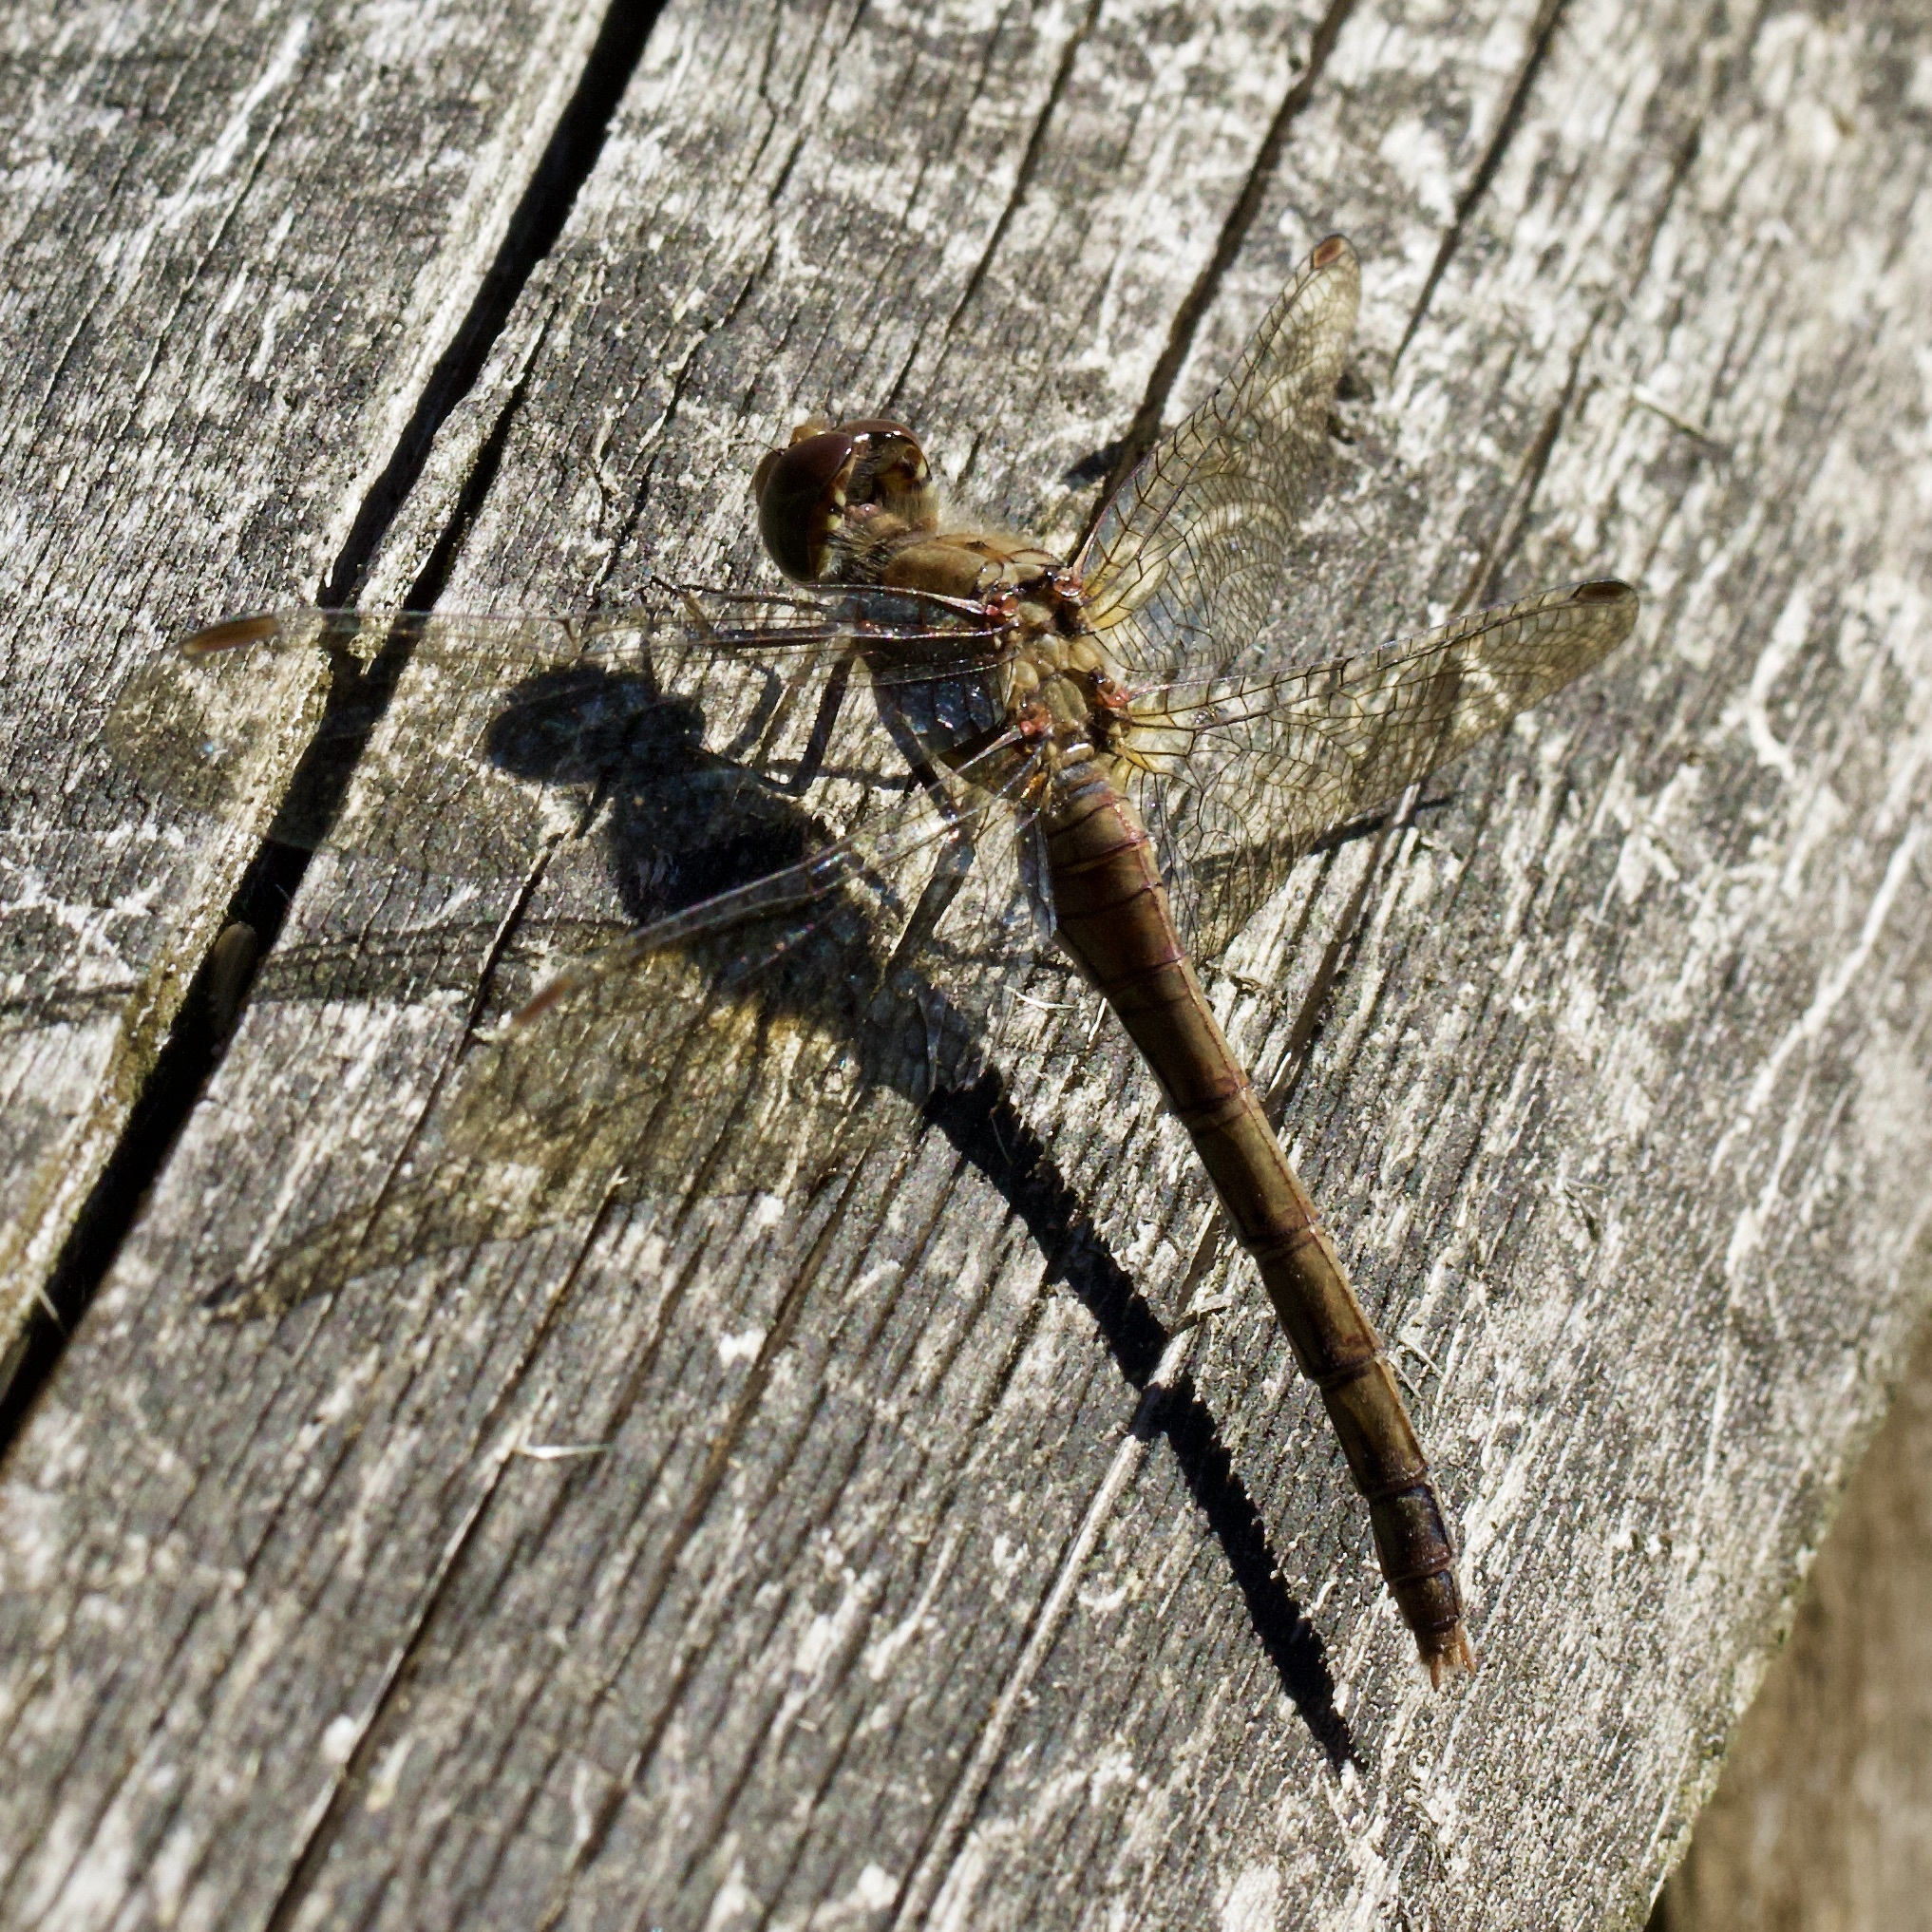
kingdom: Animalia
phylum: Arthropoda
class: Insecta
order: Odonata
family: Libellulidae
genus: Sympetrum
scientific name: Sympetrum striolatum
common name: Common darter
